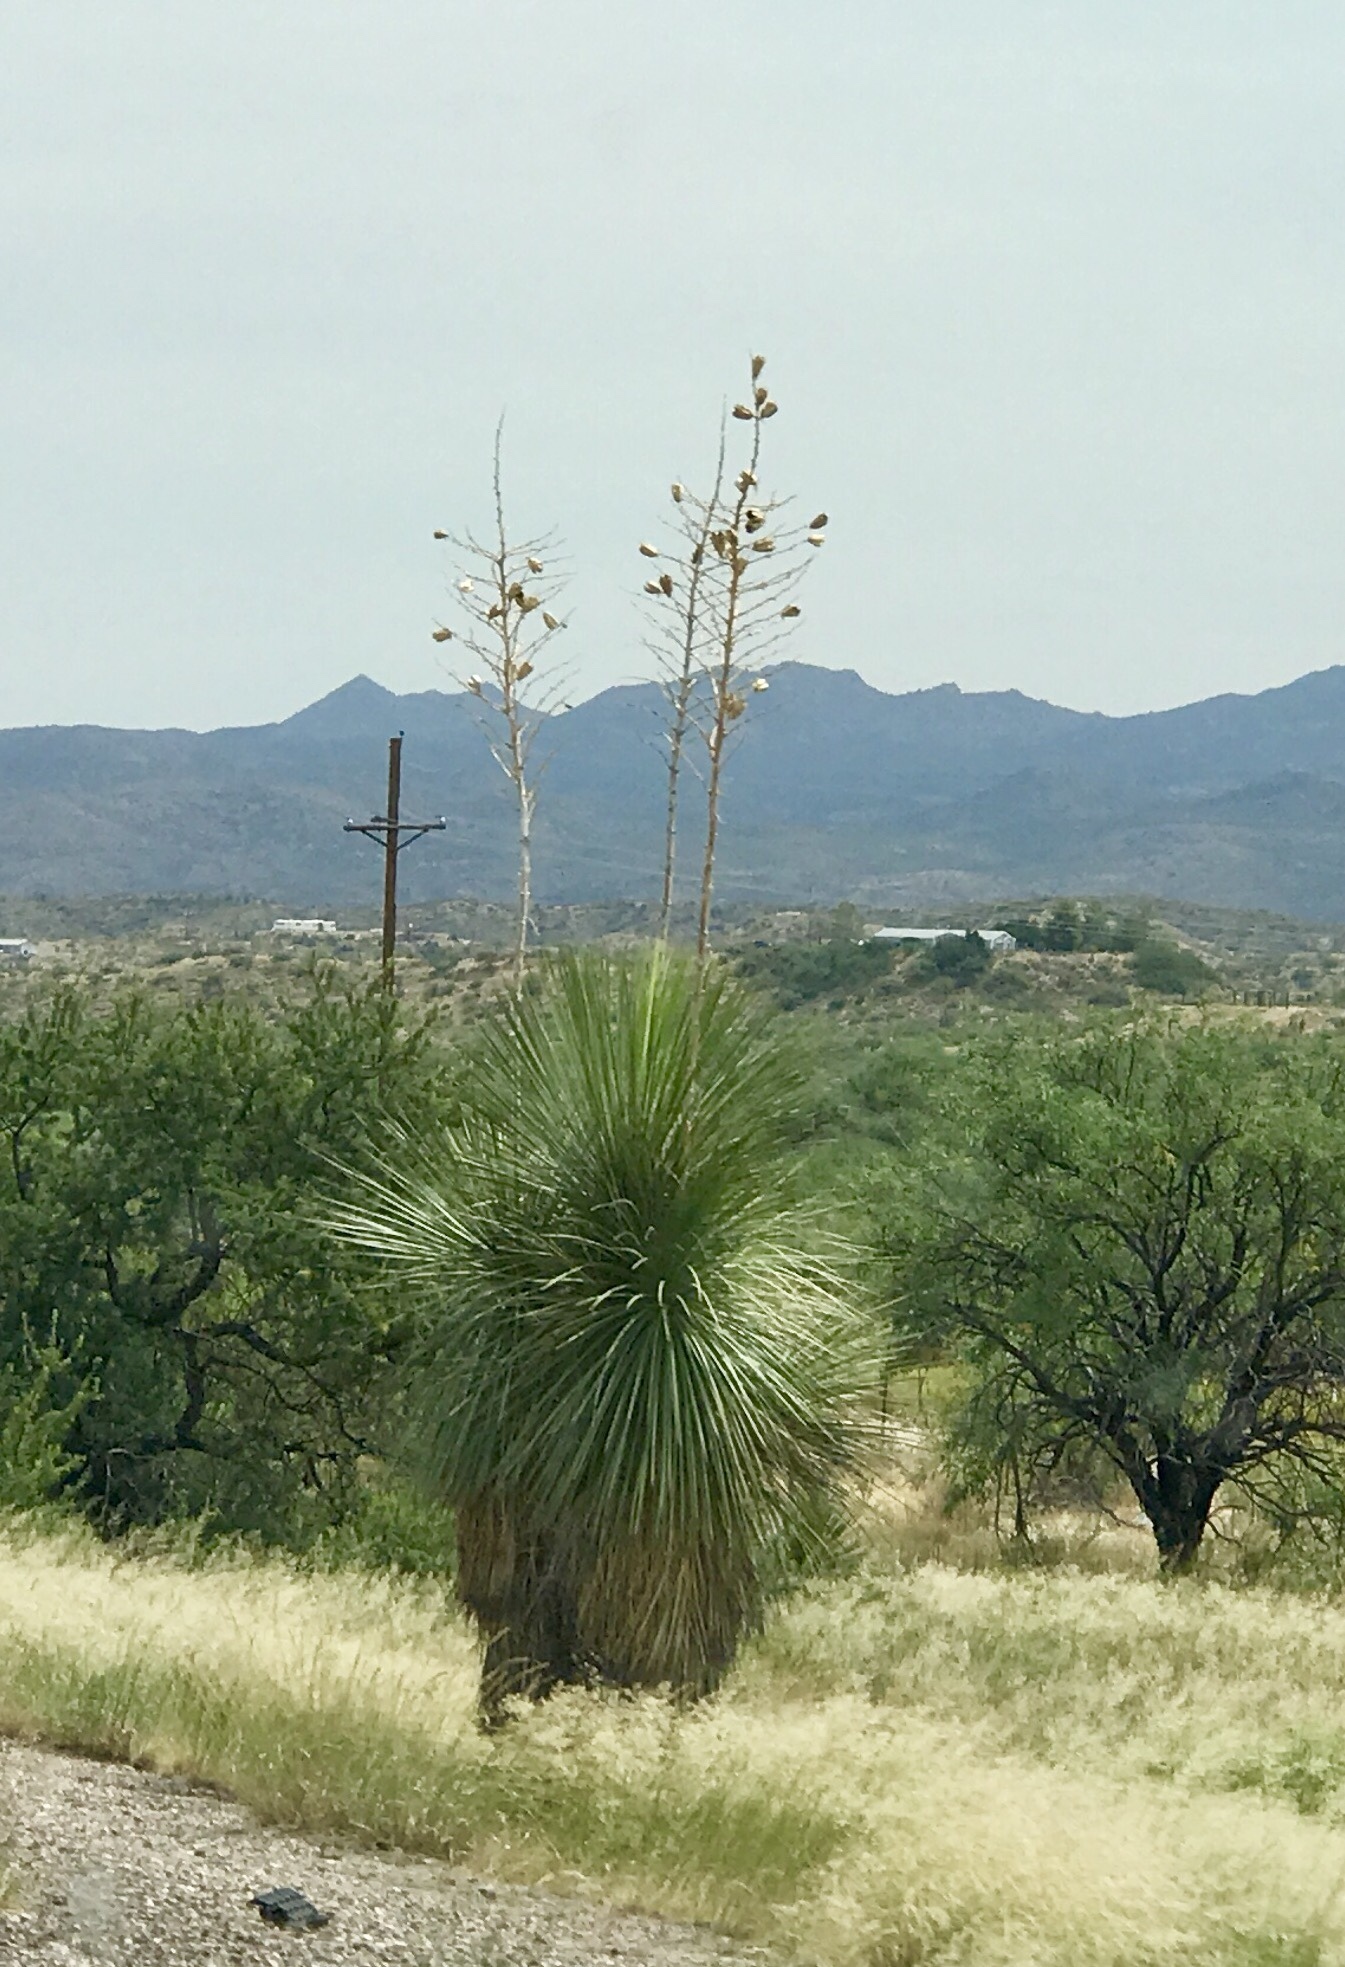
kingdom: Plantae
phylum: Tracheophyta
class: Liliopsida
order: Asparagales
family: Asparagaceae
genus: Yucca
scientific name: Yucca elata
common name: Palmella
